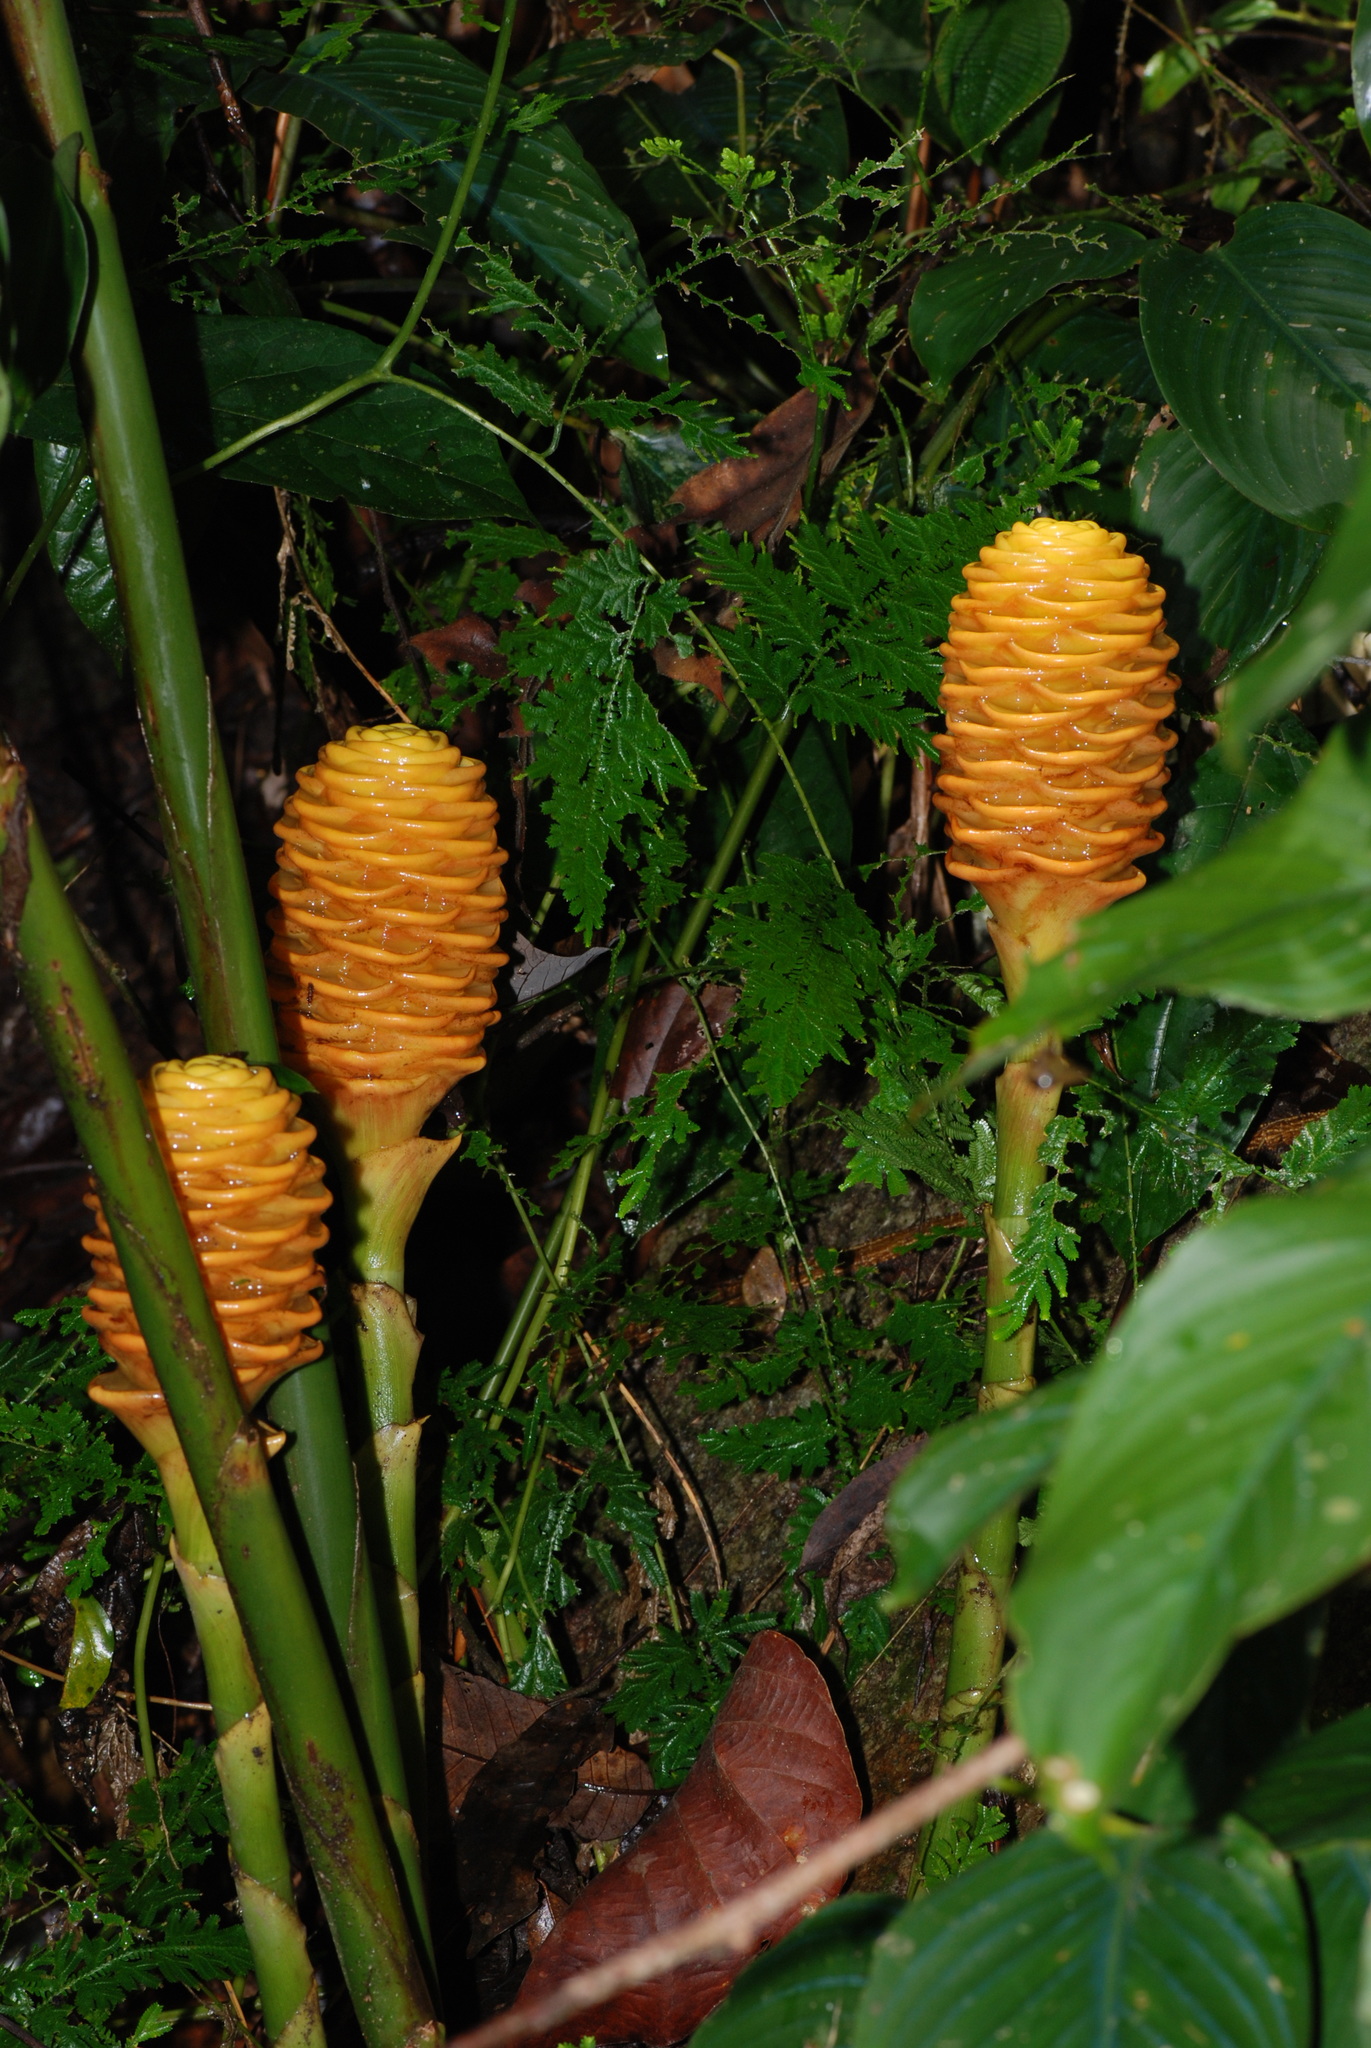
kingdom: Plantae
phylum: Tracheophyta
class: Liliopsida
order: Zingiberales
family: Zingiberaceae
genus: Zingiber
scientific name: Zingiber spectabile
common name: Beehive ginger
